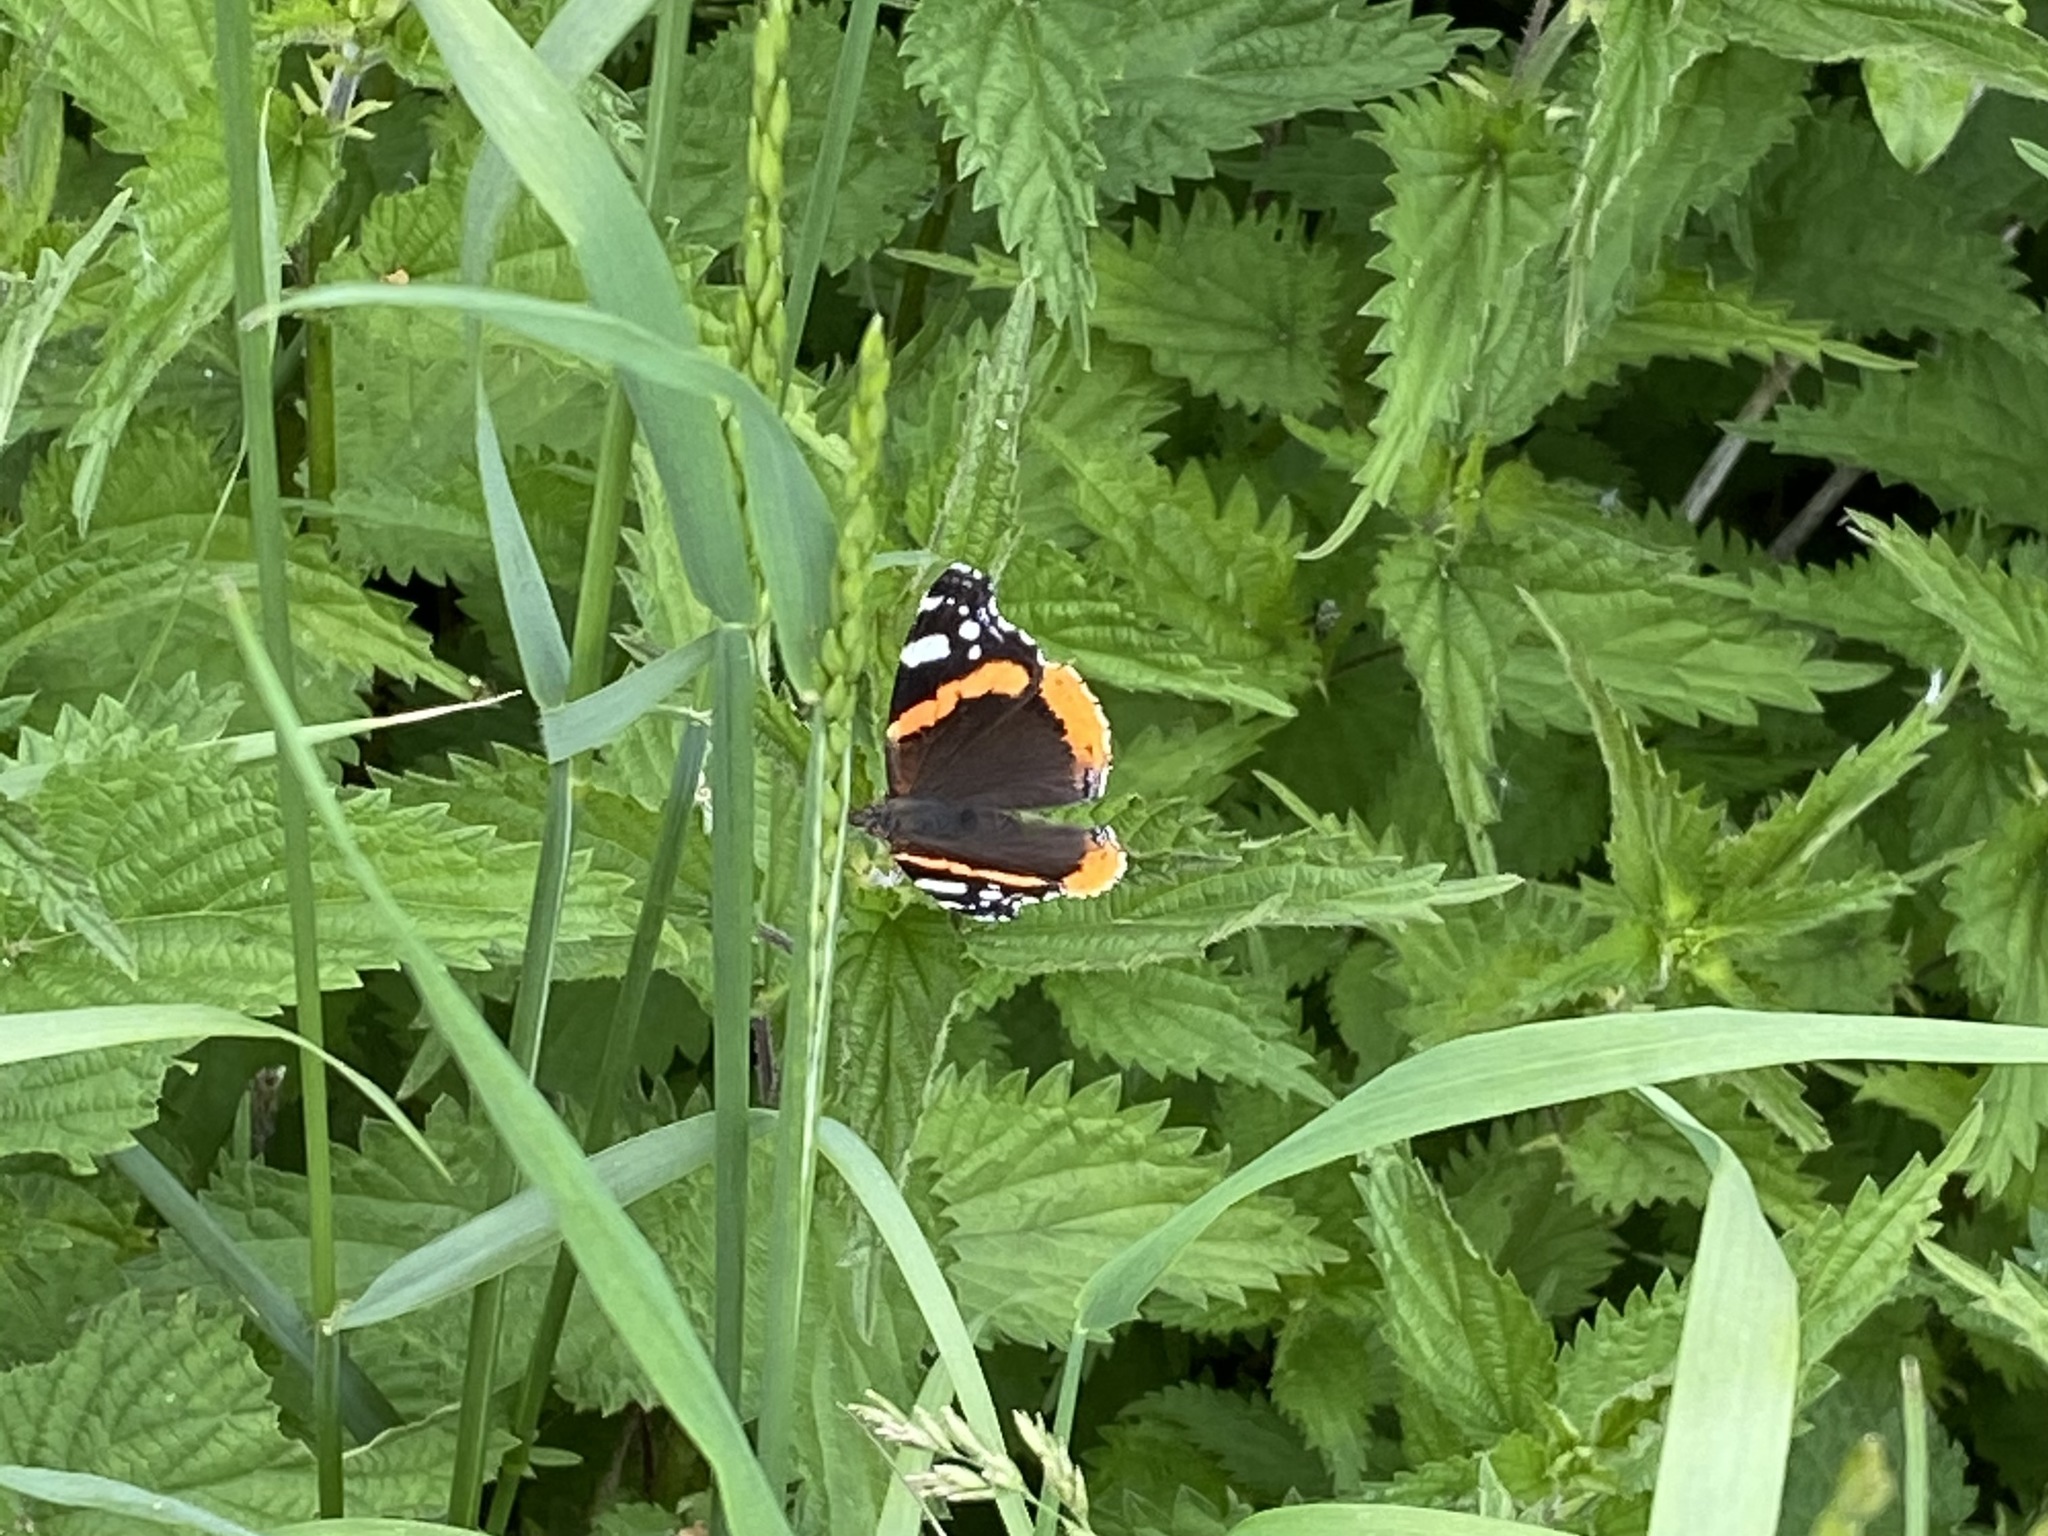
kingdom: Animalia
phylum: Arthropoda
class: Insecta
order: Lepidoptera
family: Nymphalidae
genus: Vanessa
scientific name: Vanessa atalanta
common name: Red admiral
